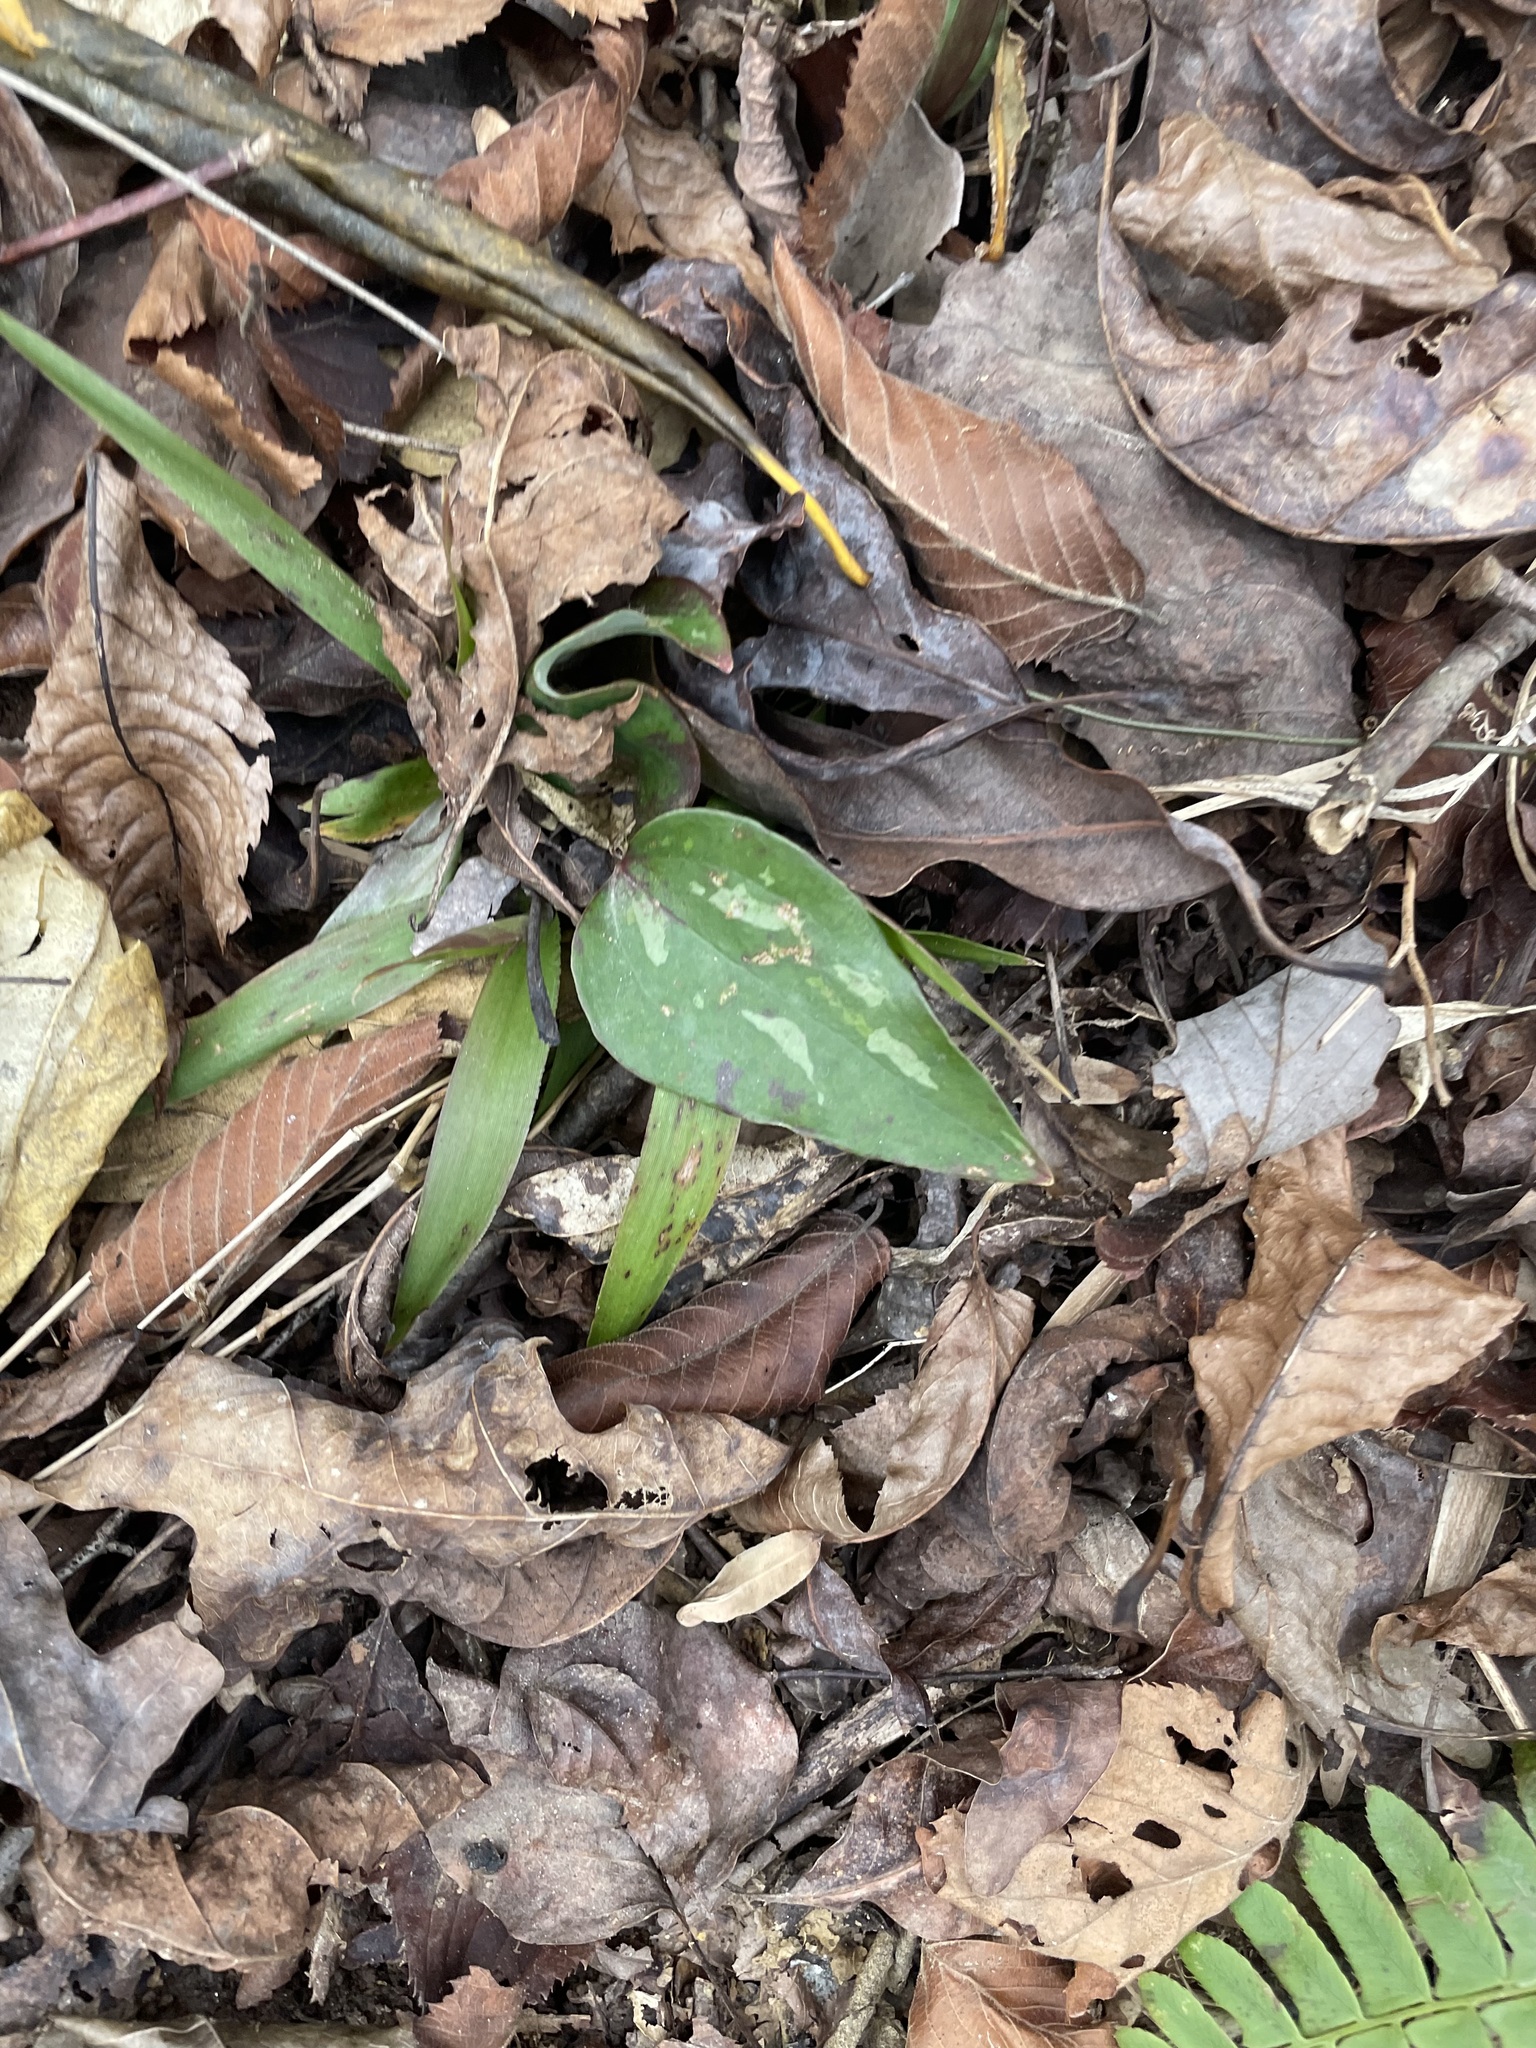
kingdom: Plantae
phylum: Tracheophyta
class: Liliopsida
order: Liliales
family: Smilacaceae
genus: Smilax
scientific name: Smilax glauca
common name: Cat greenbrier
